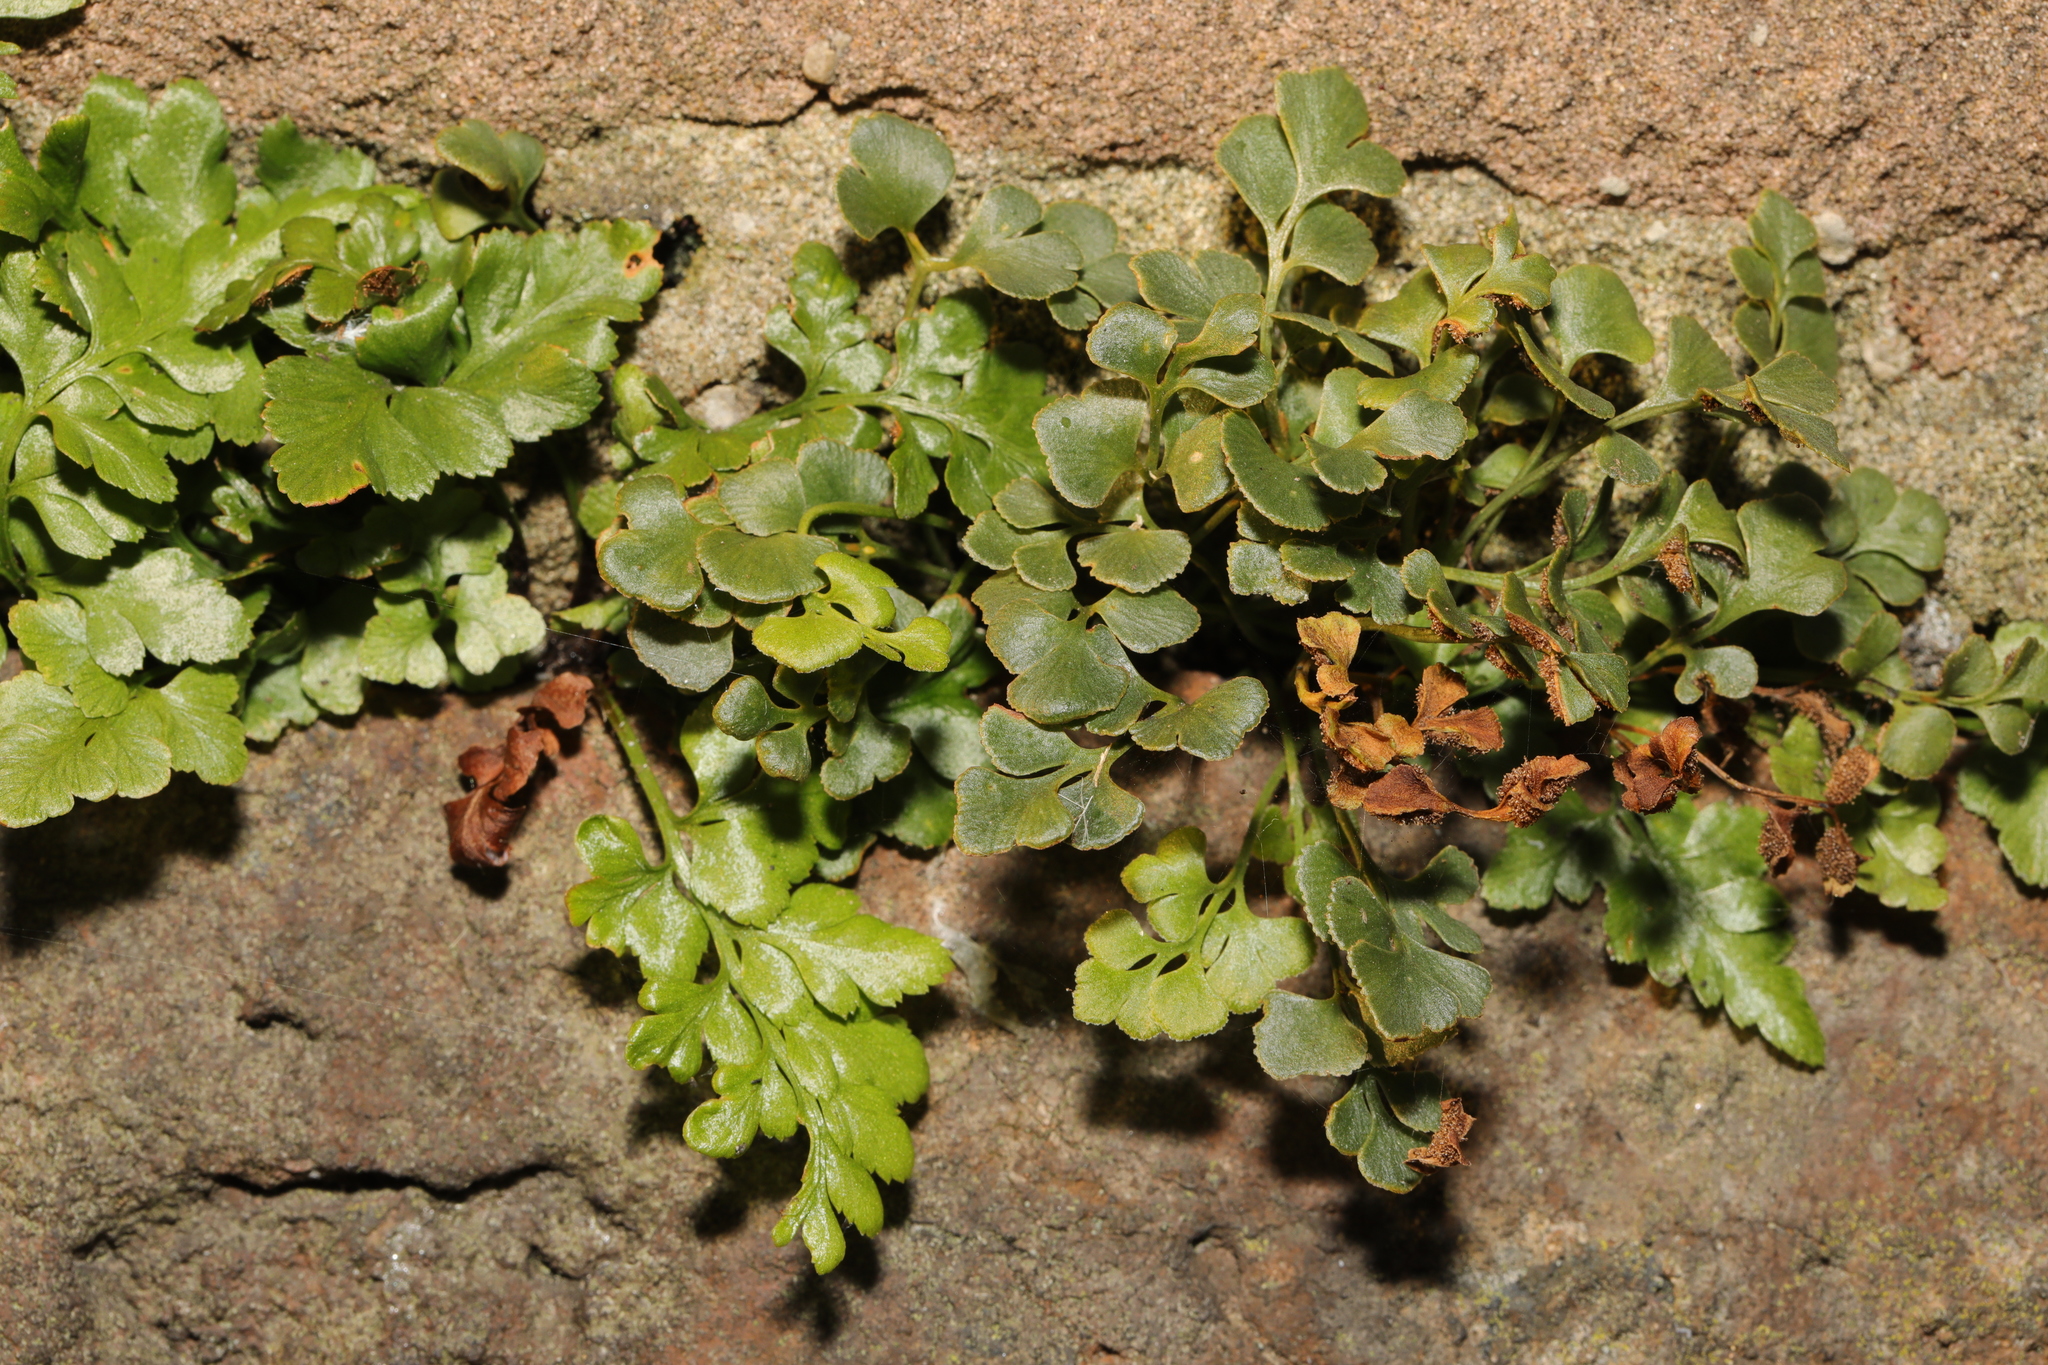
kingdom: Plantae
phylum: Tracheophyta
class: Polypodiopsida
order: Polypodiales
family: Aspleniaceae
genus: Asplenium
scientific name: Asplenium ruta-muraria
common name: Wall-rue
